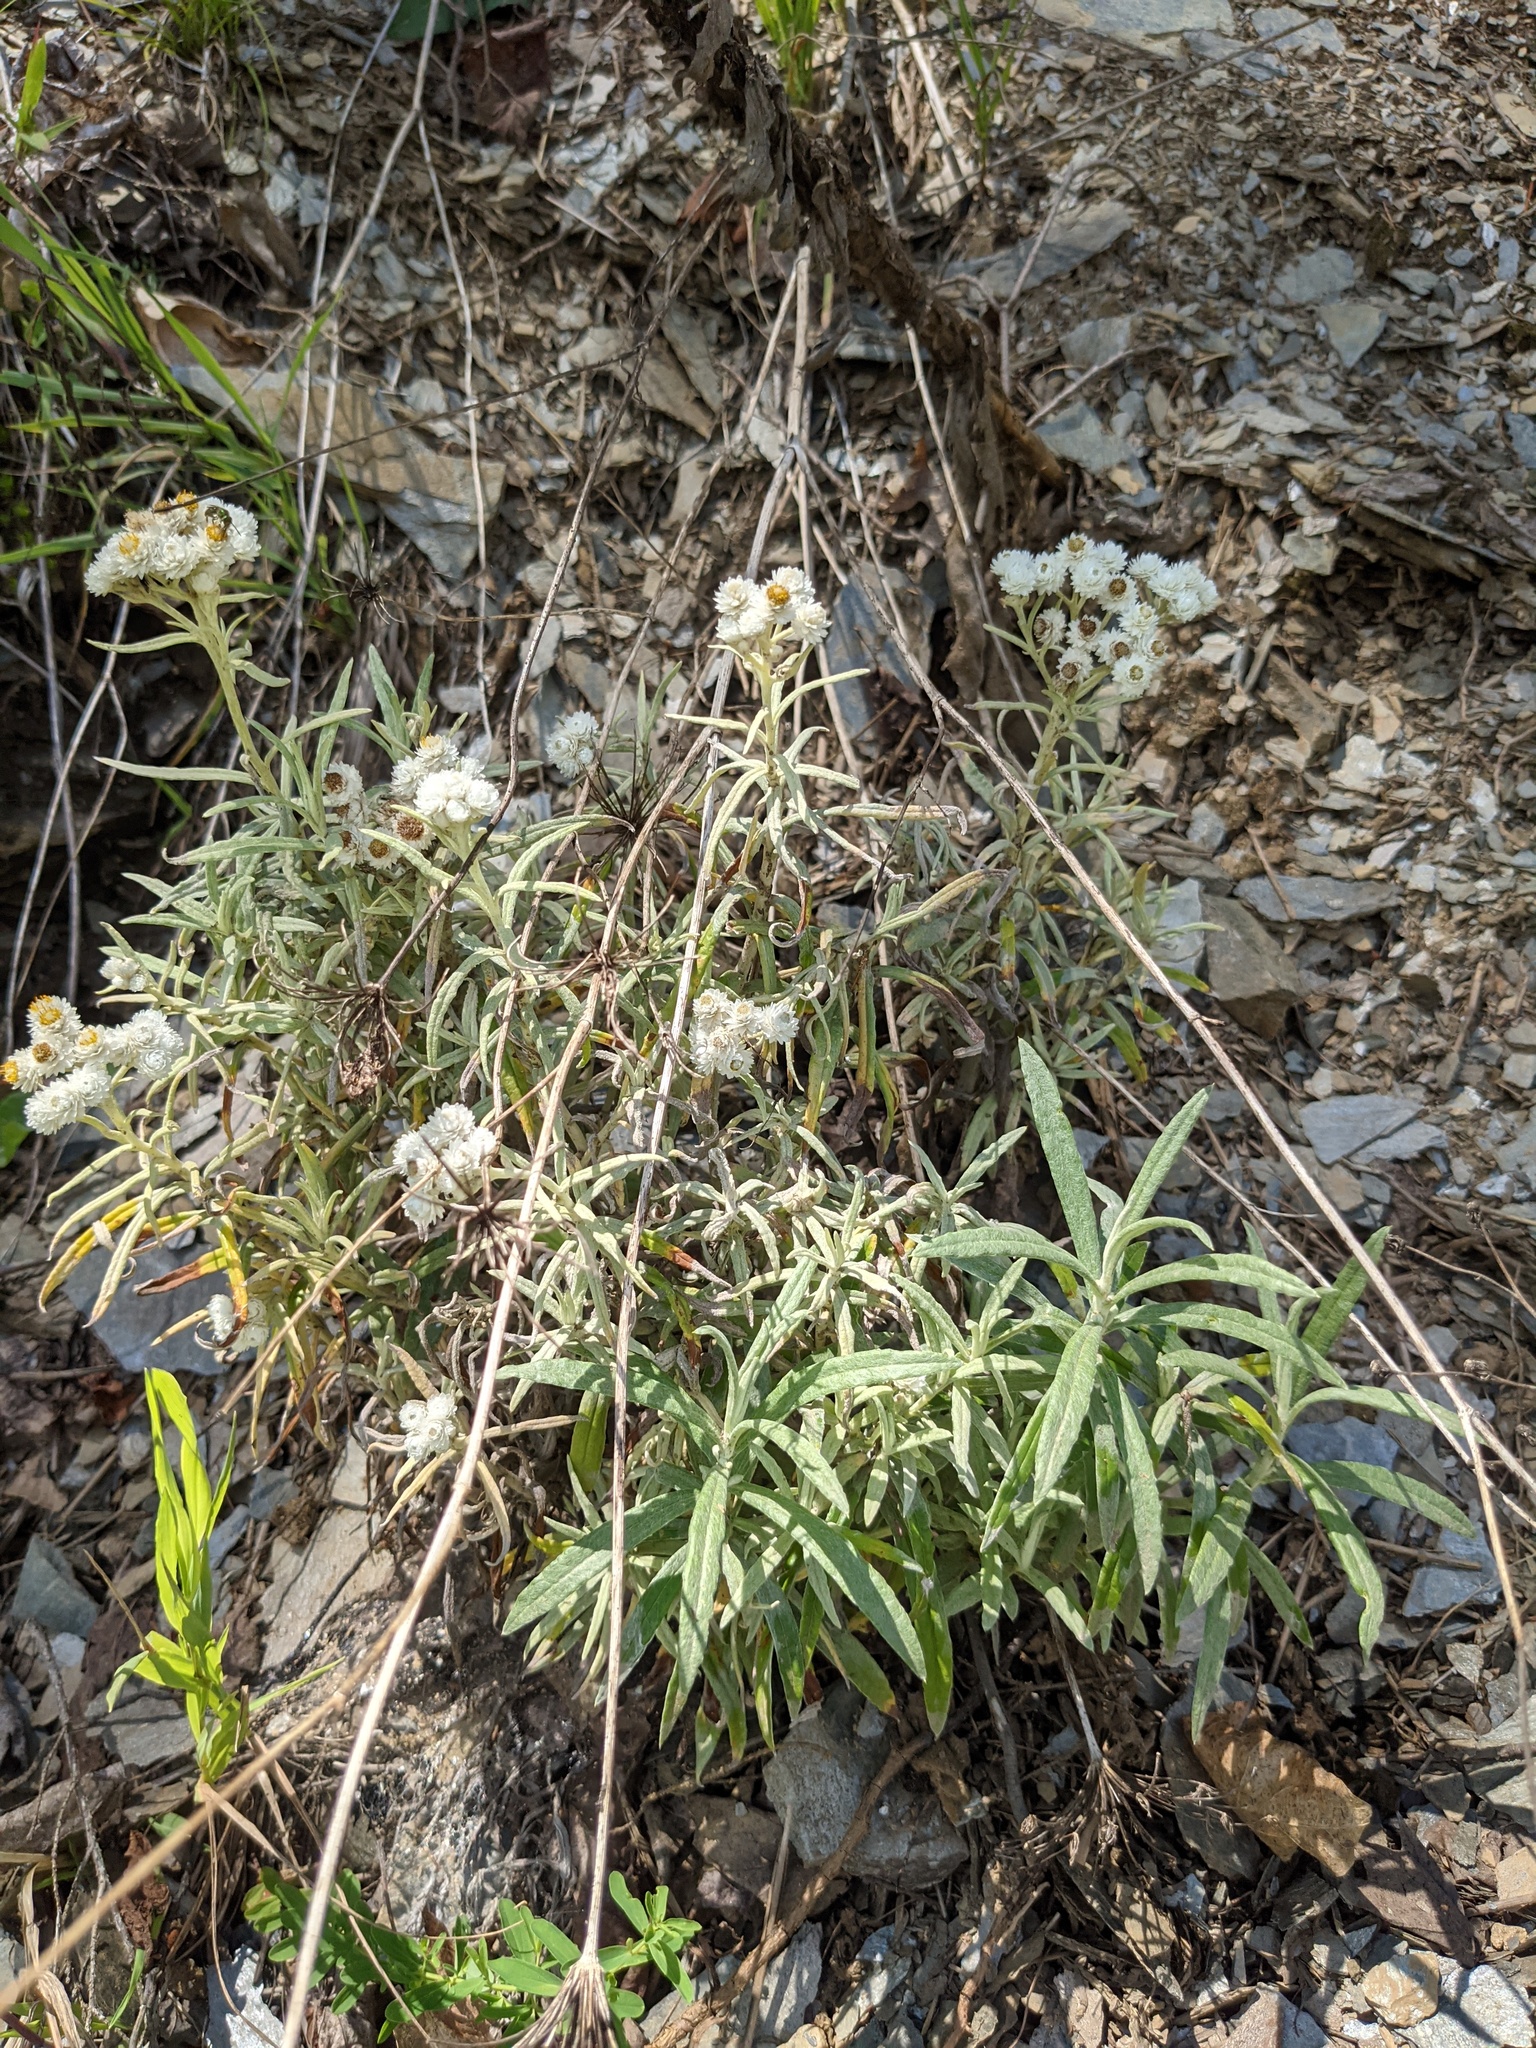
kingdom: Plantae
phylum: Tracheophyta
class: Magnoliopsida
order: Asterales
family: Asteraceae
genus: Anaphalis
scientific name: Anaphalis margaritacea
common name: Pearly everlasting
